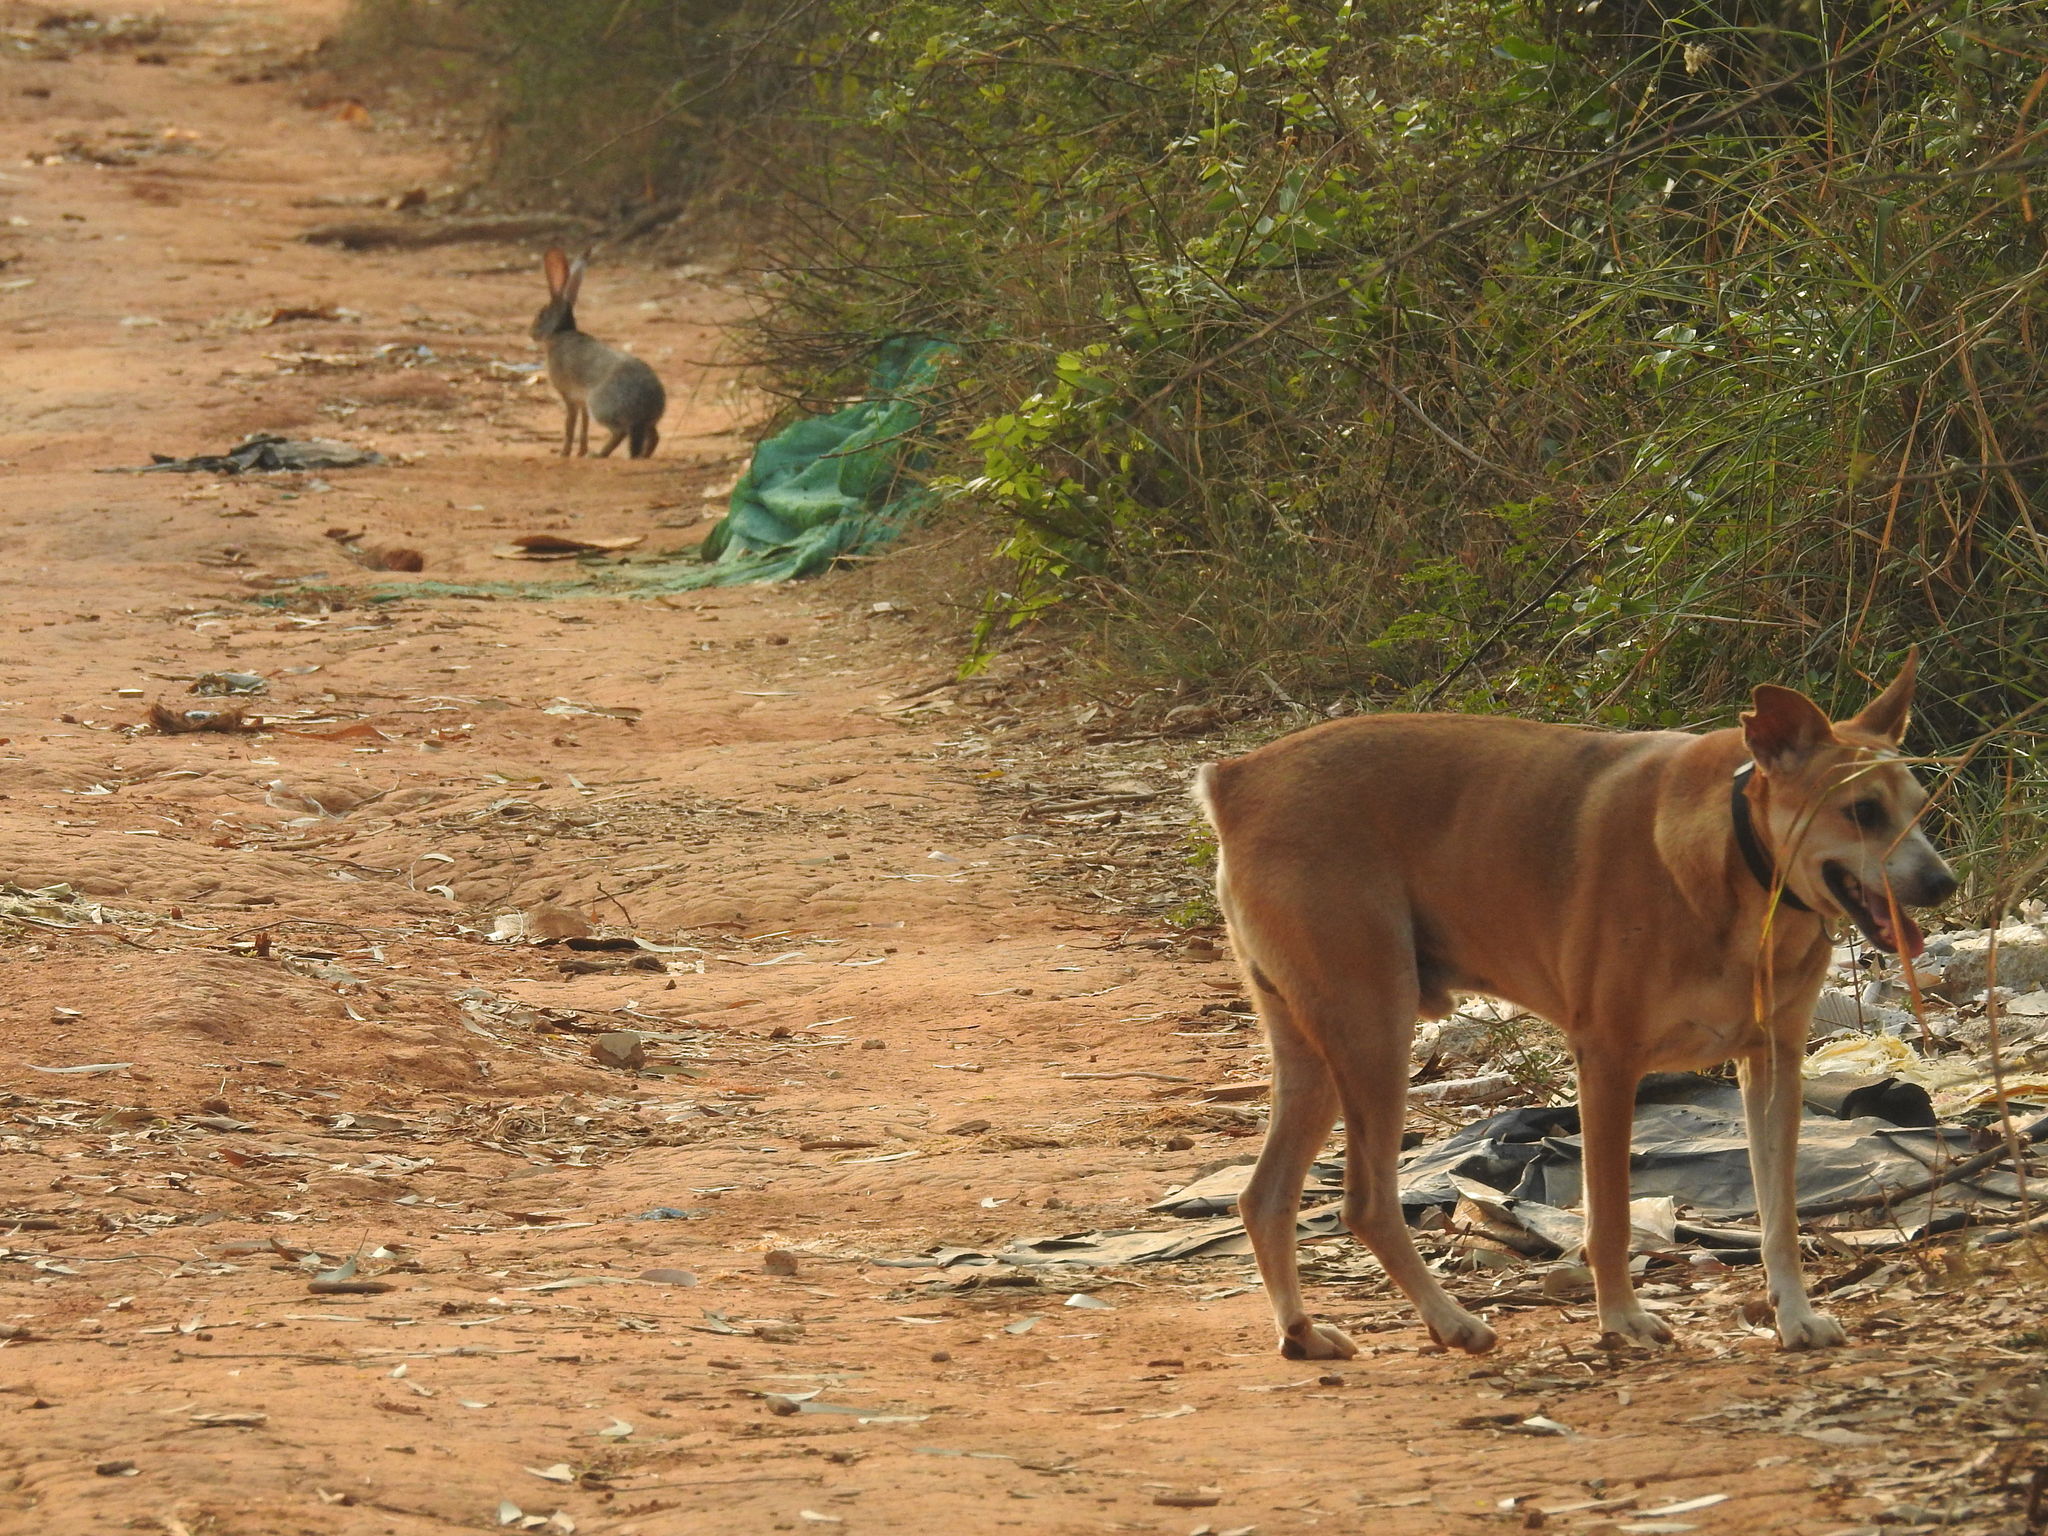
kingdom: Animalia
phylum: Chordata
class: Mammalia
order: Lagomorpha
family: Leporidae
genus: Lepus
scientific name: Lepus nigricollis
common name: Indian hare
